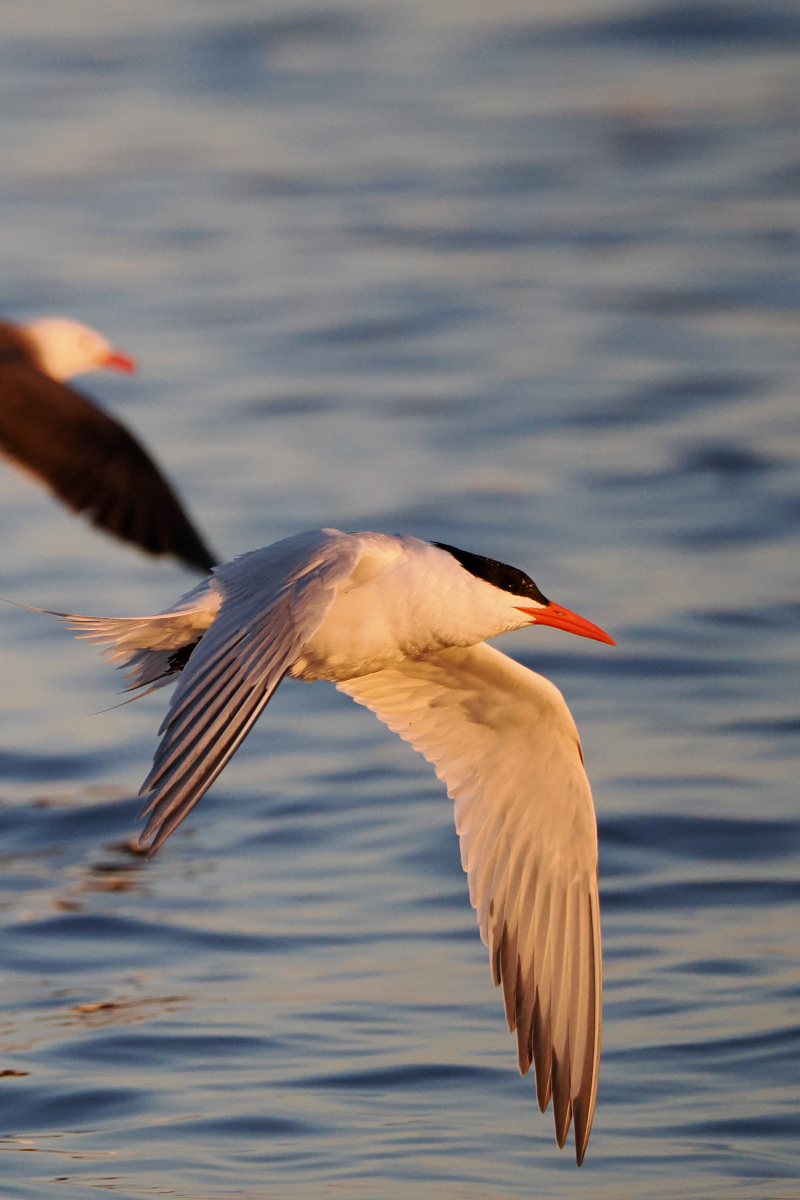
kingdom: Animalia
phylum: Chordata
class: Aves
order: Charadriiformes
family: Laridae
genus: Hydroprogne
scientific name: Hydroprogne caspia
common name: Caspian tern
